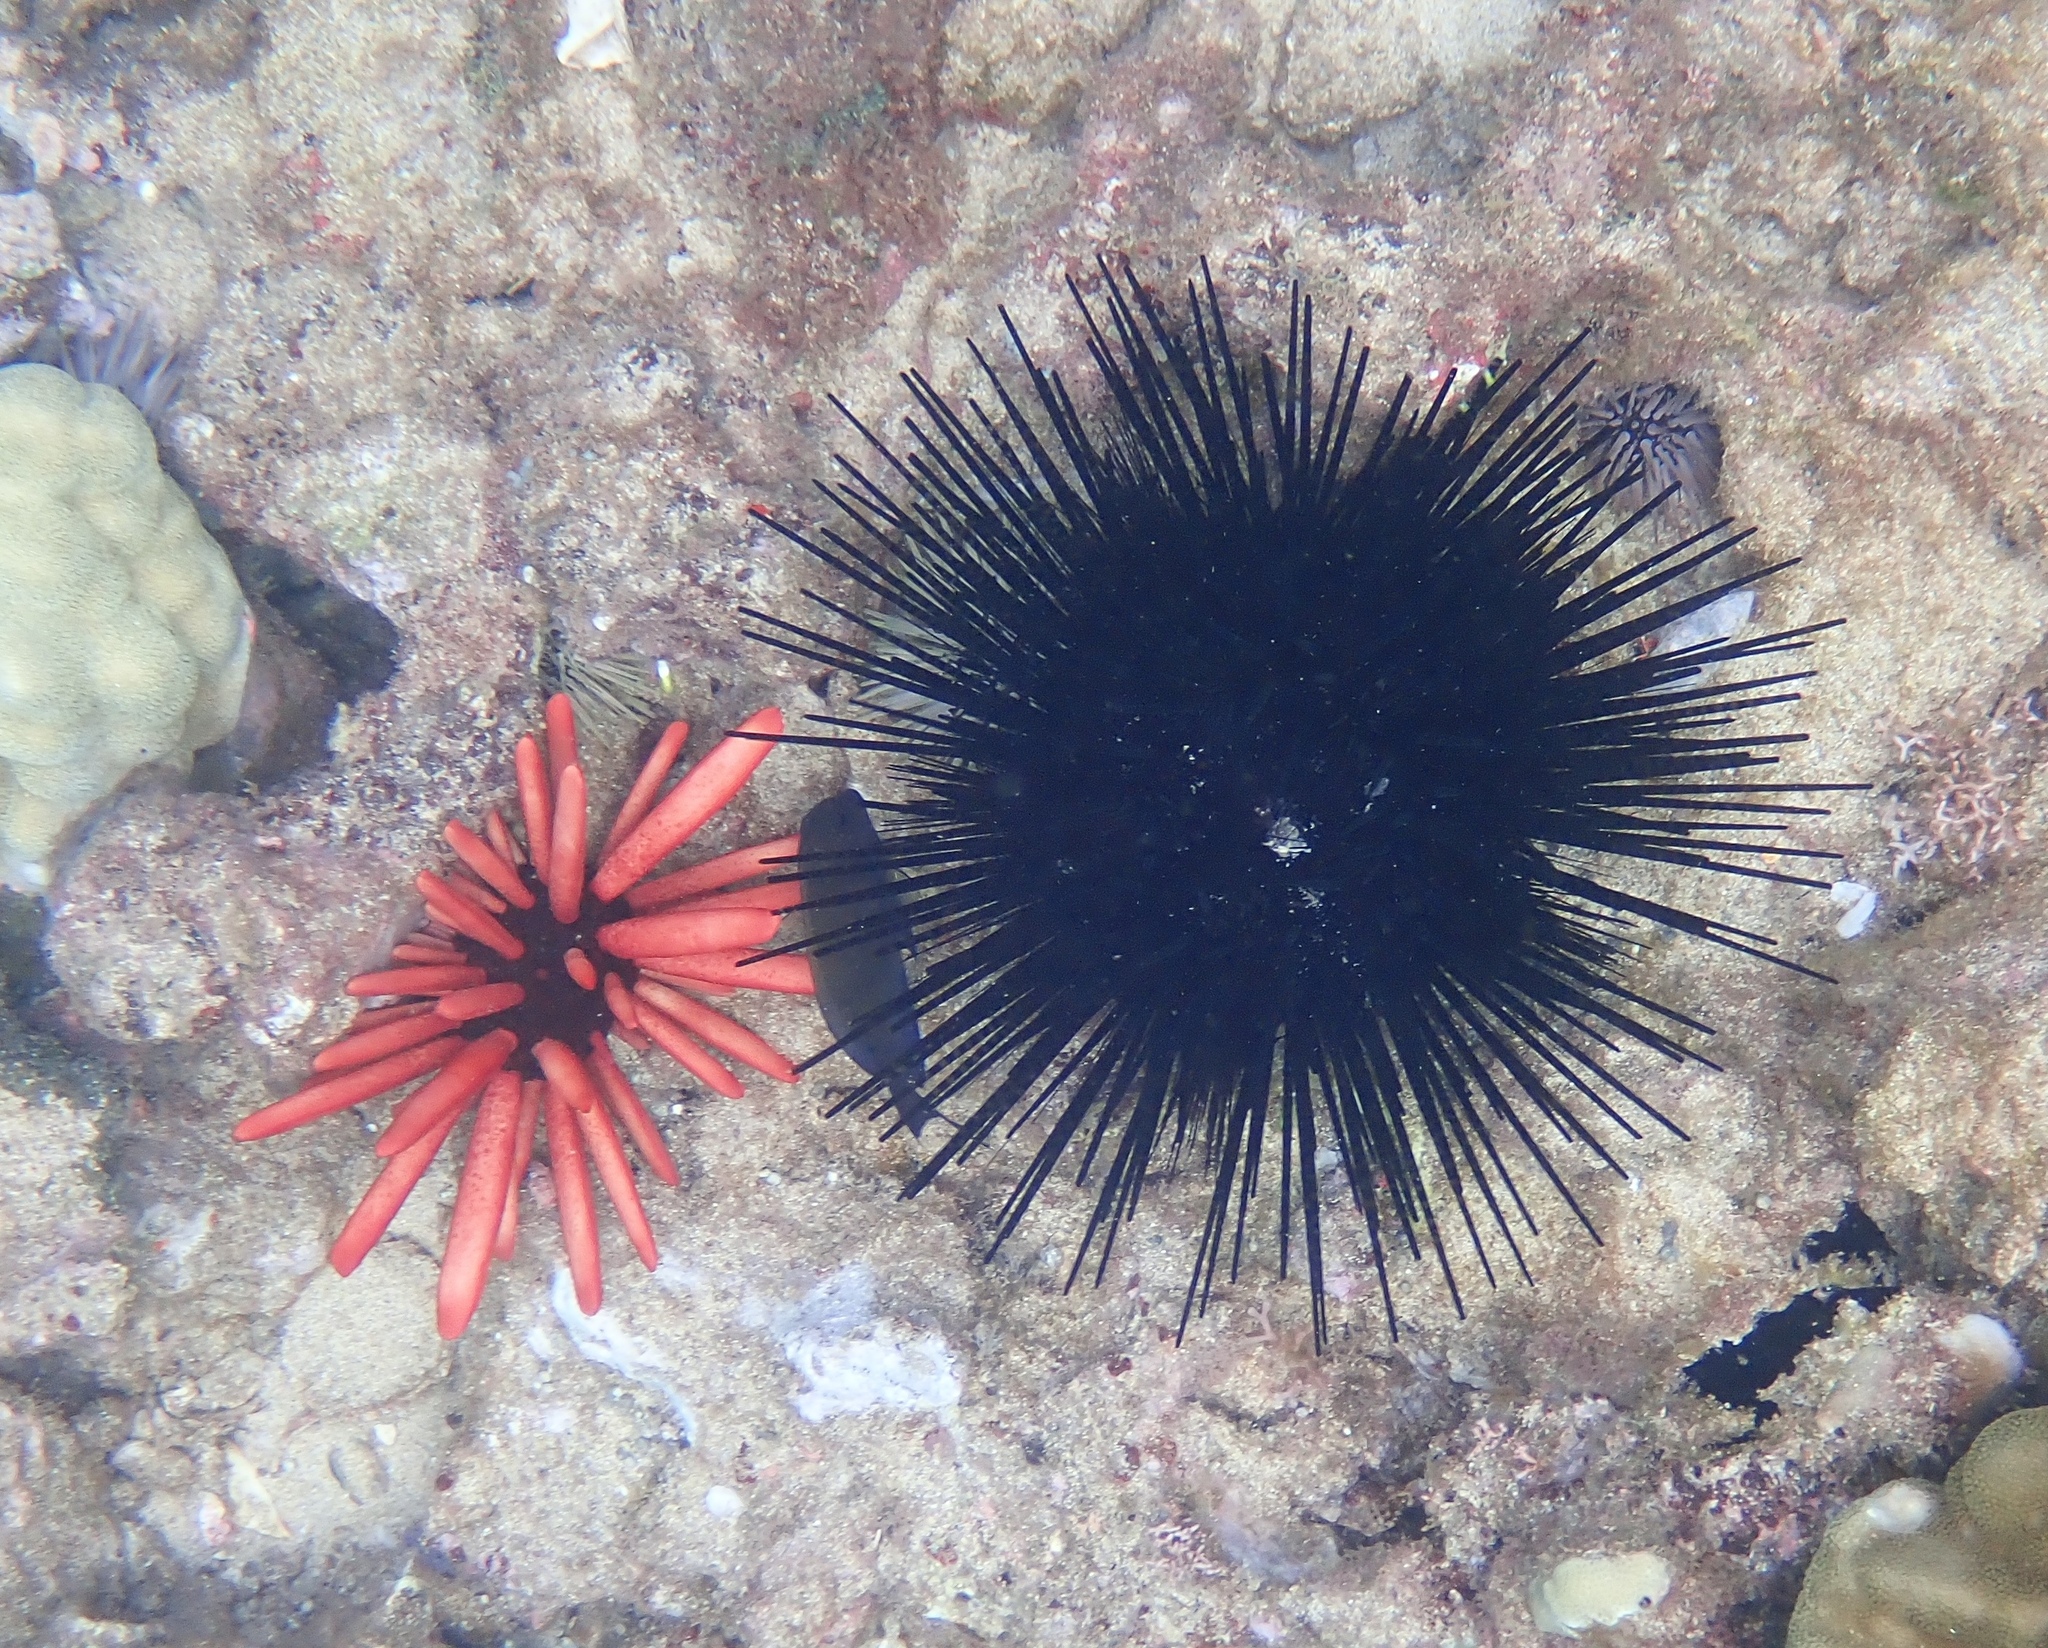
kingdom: Animalia
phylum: Echinodermata
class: Echinoidea
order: Camarodonta
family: Echinometridae
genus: Heterocentrotus
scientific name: Heterocentrotus mamillatus
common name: Slate pencil urchin
